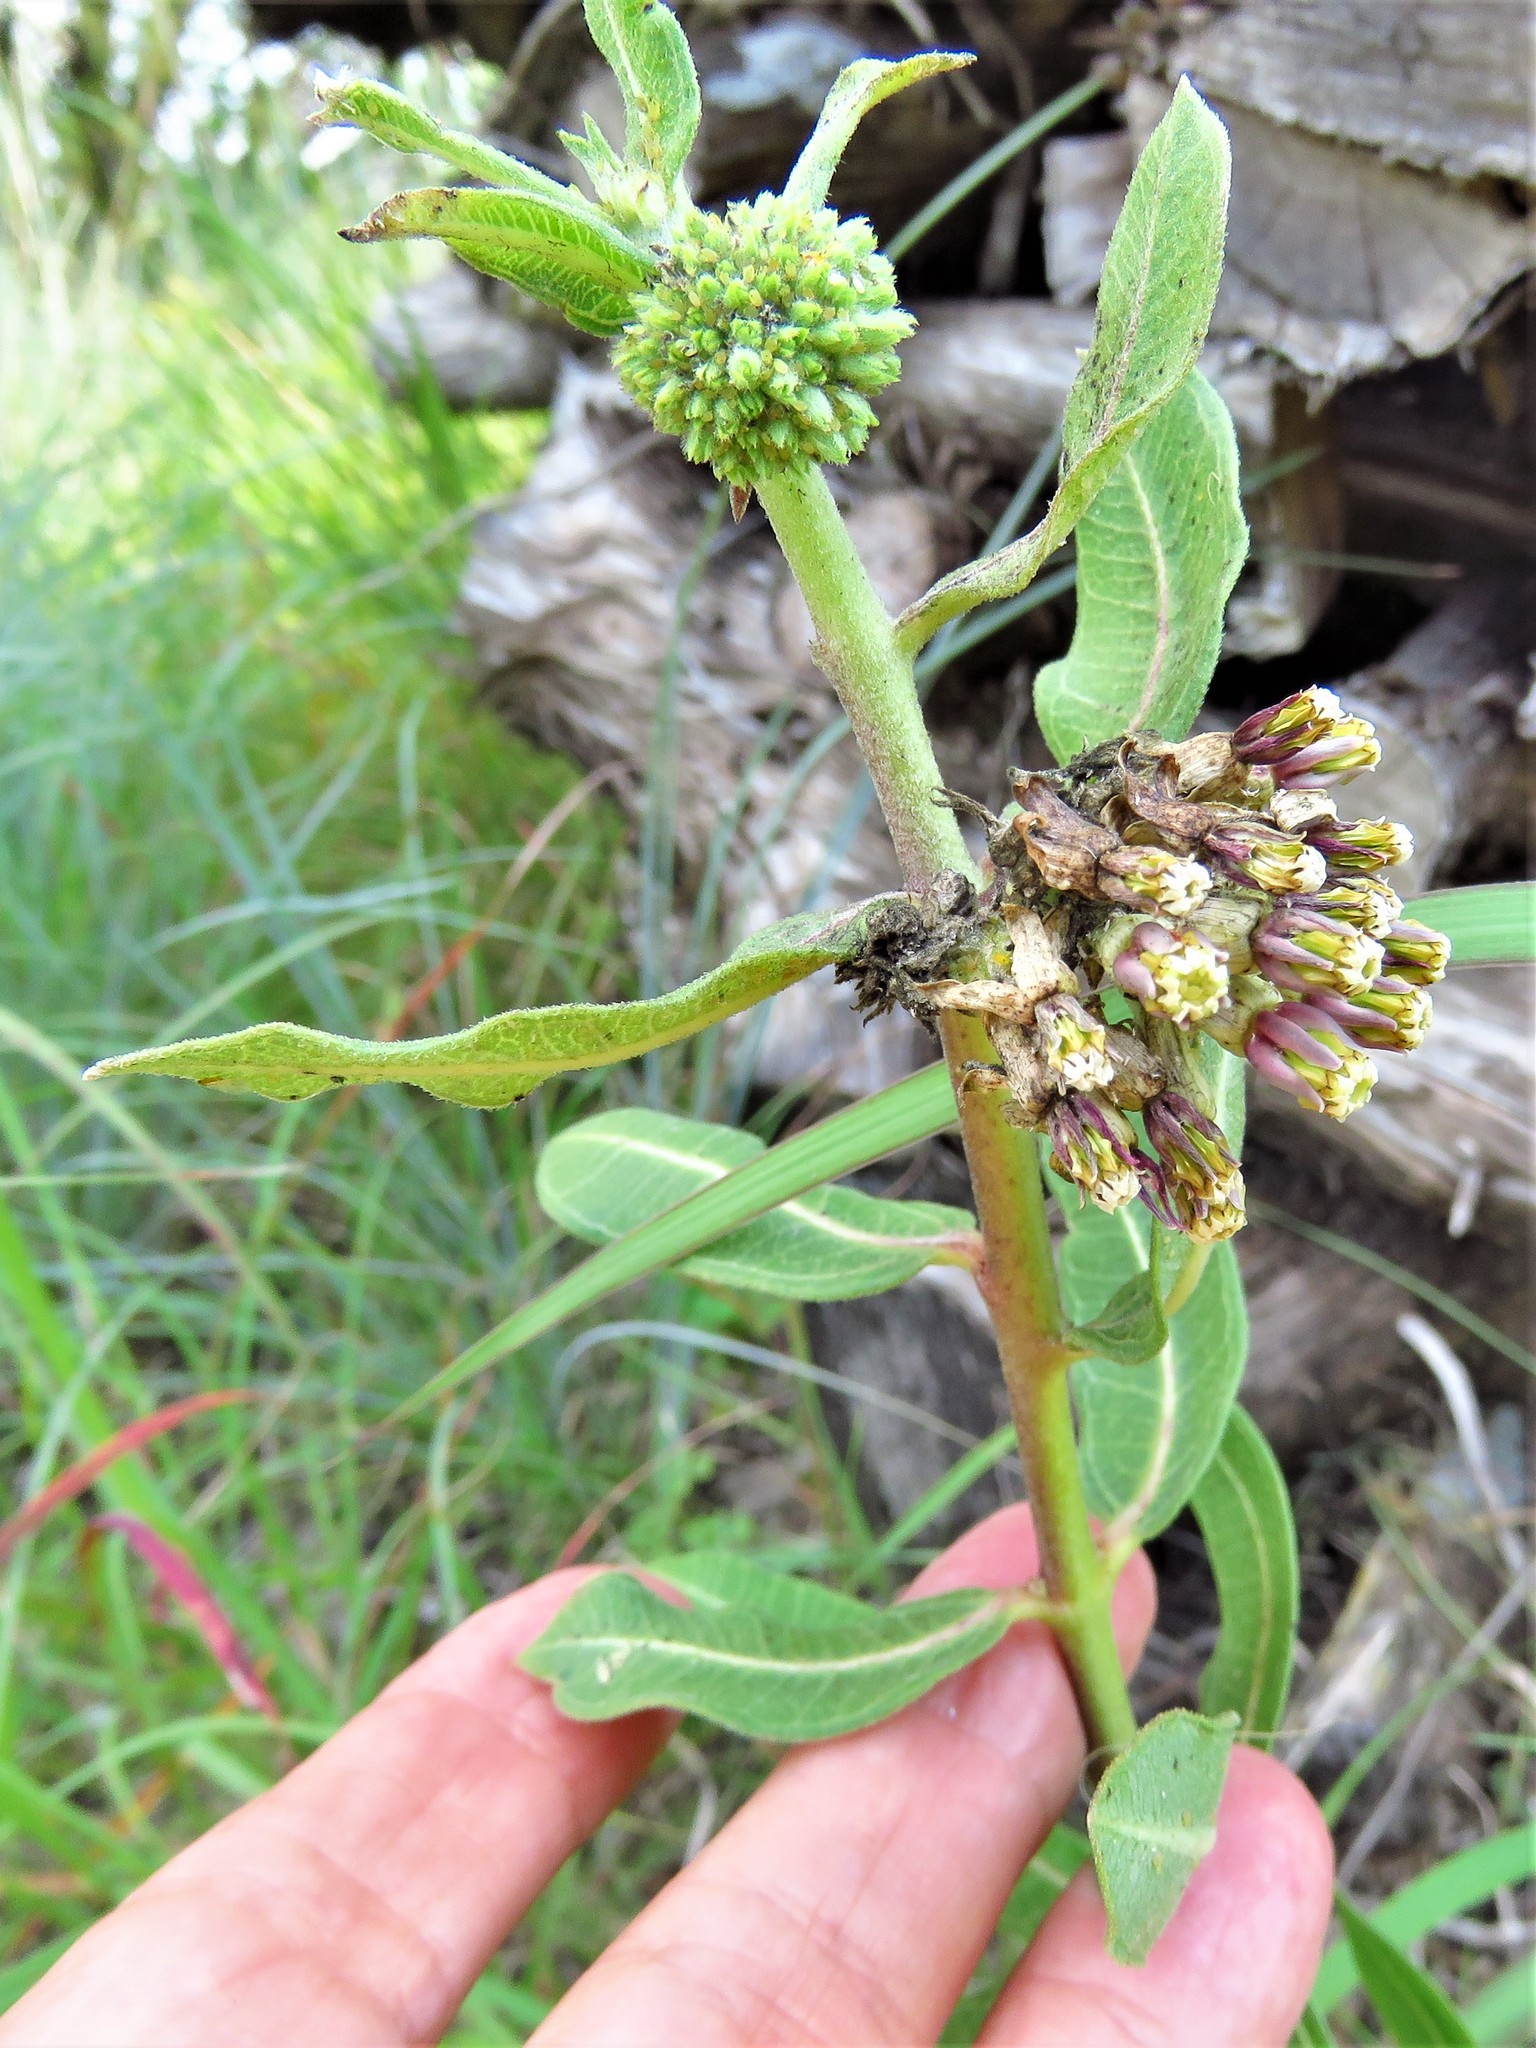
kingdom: Plantae
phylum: Tracheophyta
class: Magnoliopsida
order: Gentianales
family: Apocynaceae
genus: Asclepias
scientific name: Asclepias viridiflora
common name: Green comet milkweed
